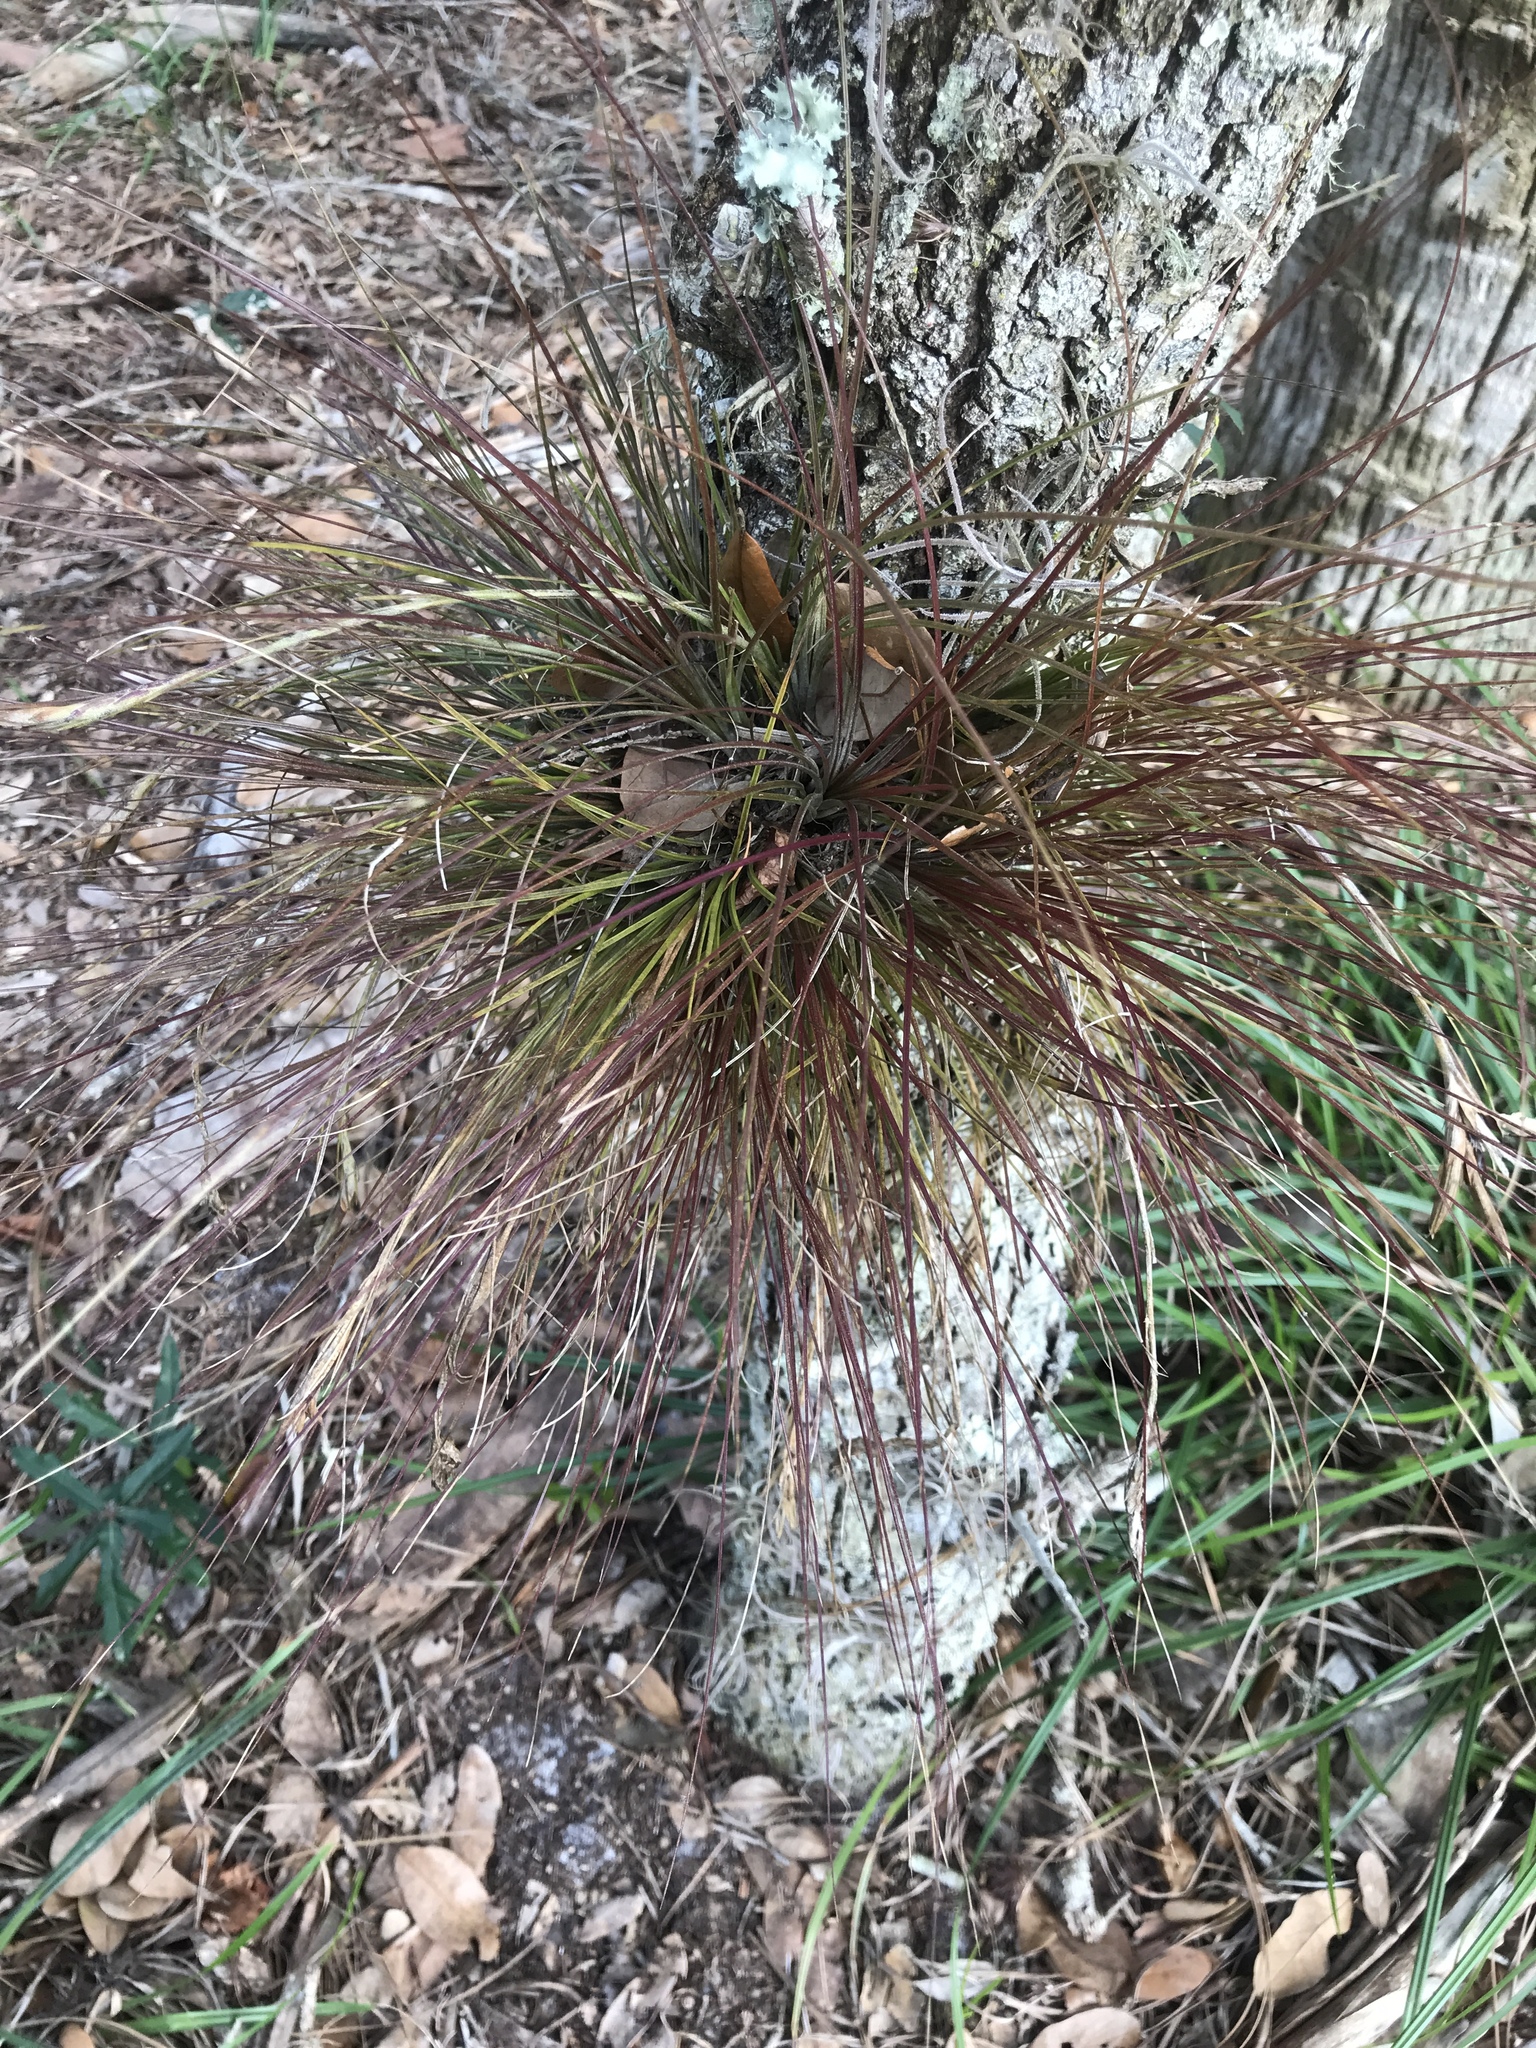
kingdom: Plantae
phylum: Tracheophyta
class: Liliopsida
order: Poales
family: Bromeliaceae
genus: Tillandsia
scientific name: Tillandsia setacea
